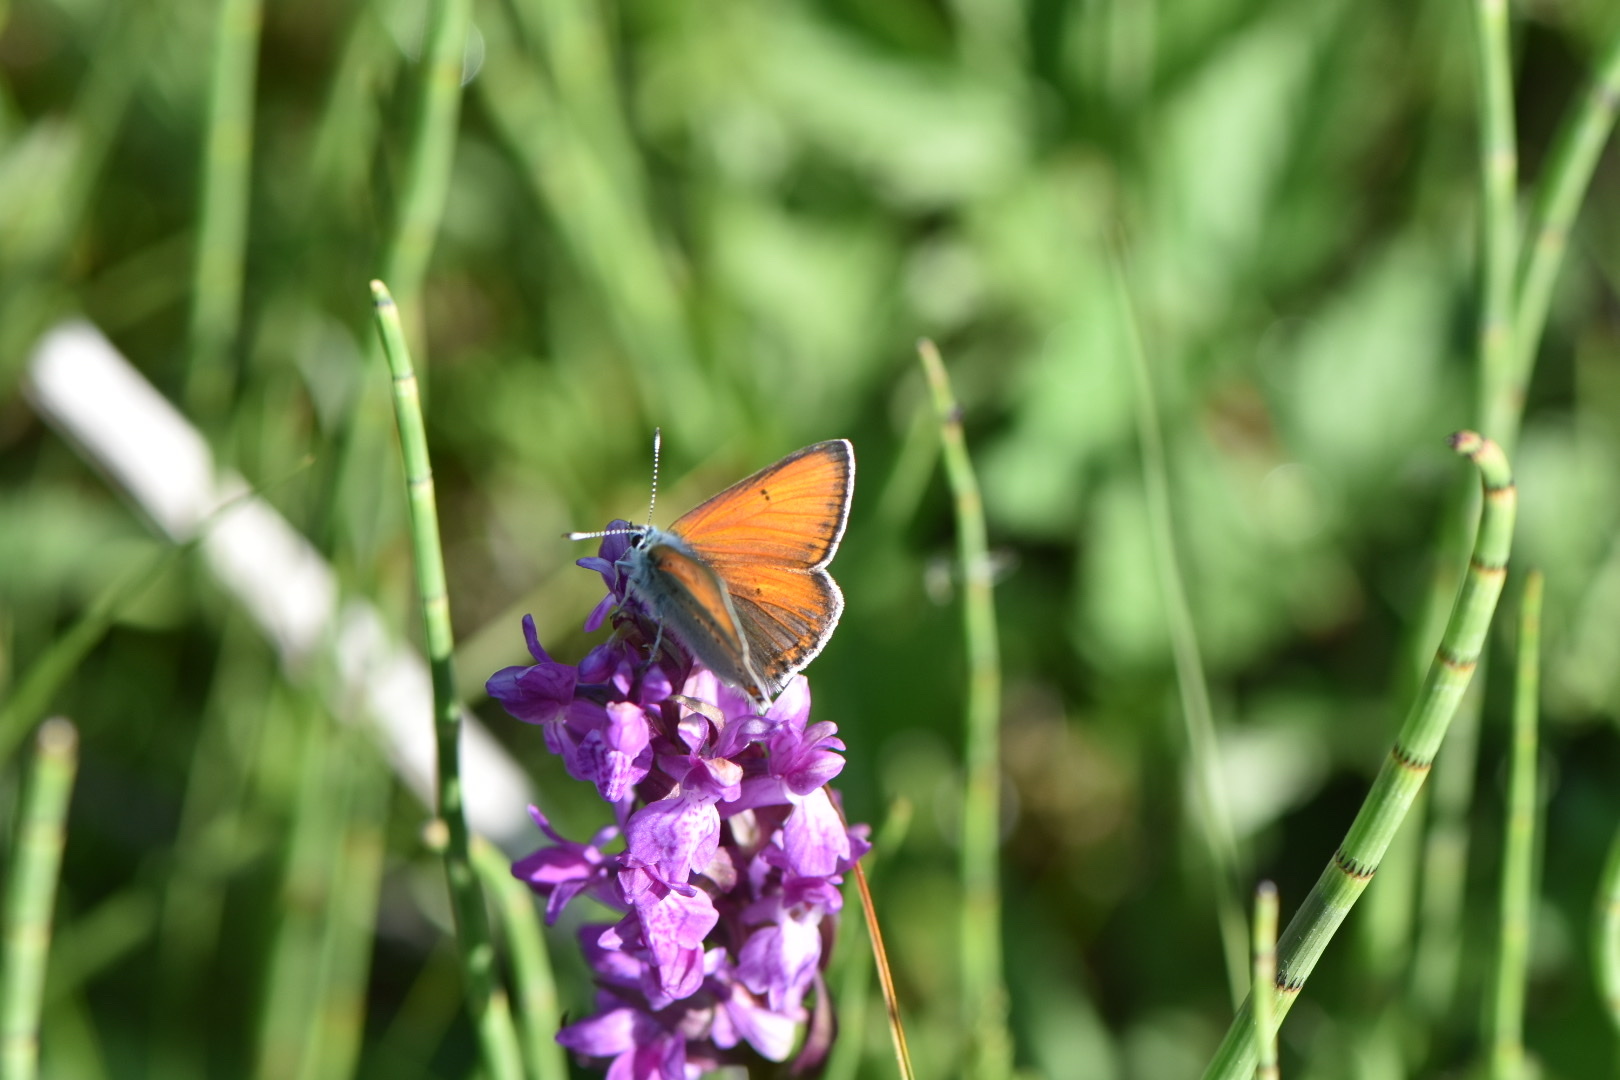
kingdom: Animalia
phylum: Arthropoda
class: Insecta
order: Lepidoptera
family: Lycaenidae
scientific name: Lycaenidae
